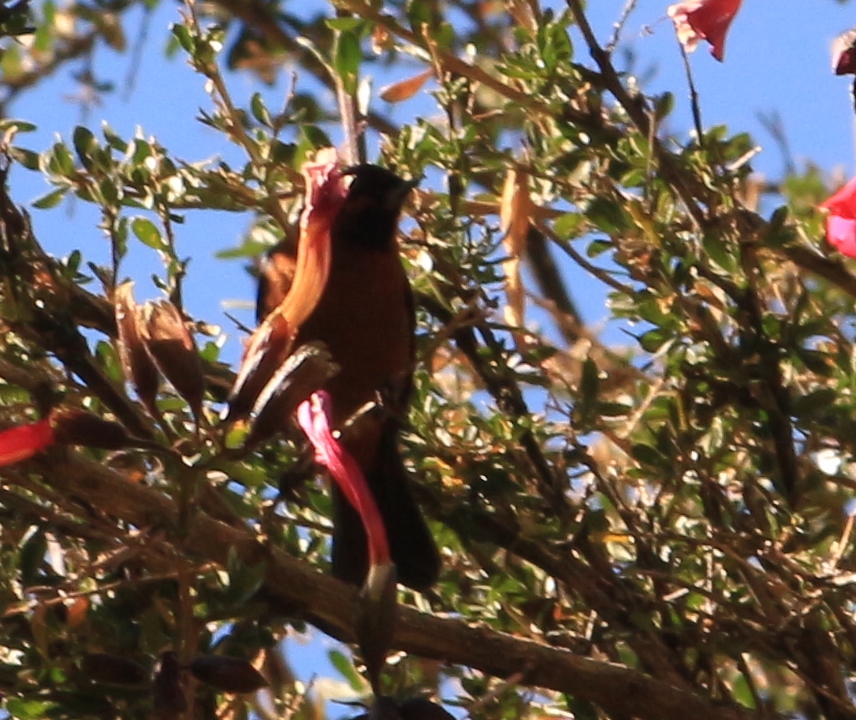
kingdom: Animalia
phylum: Chordata
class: Aves
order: Passeriformes
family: Thraupidae
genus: Diglossa
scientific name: Diglossa brunneiventris
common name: Black-throated flowerpiercer
